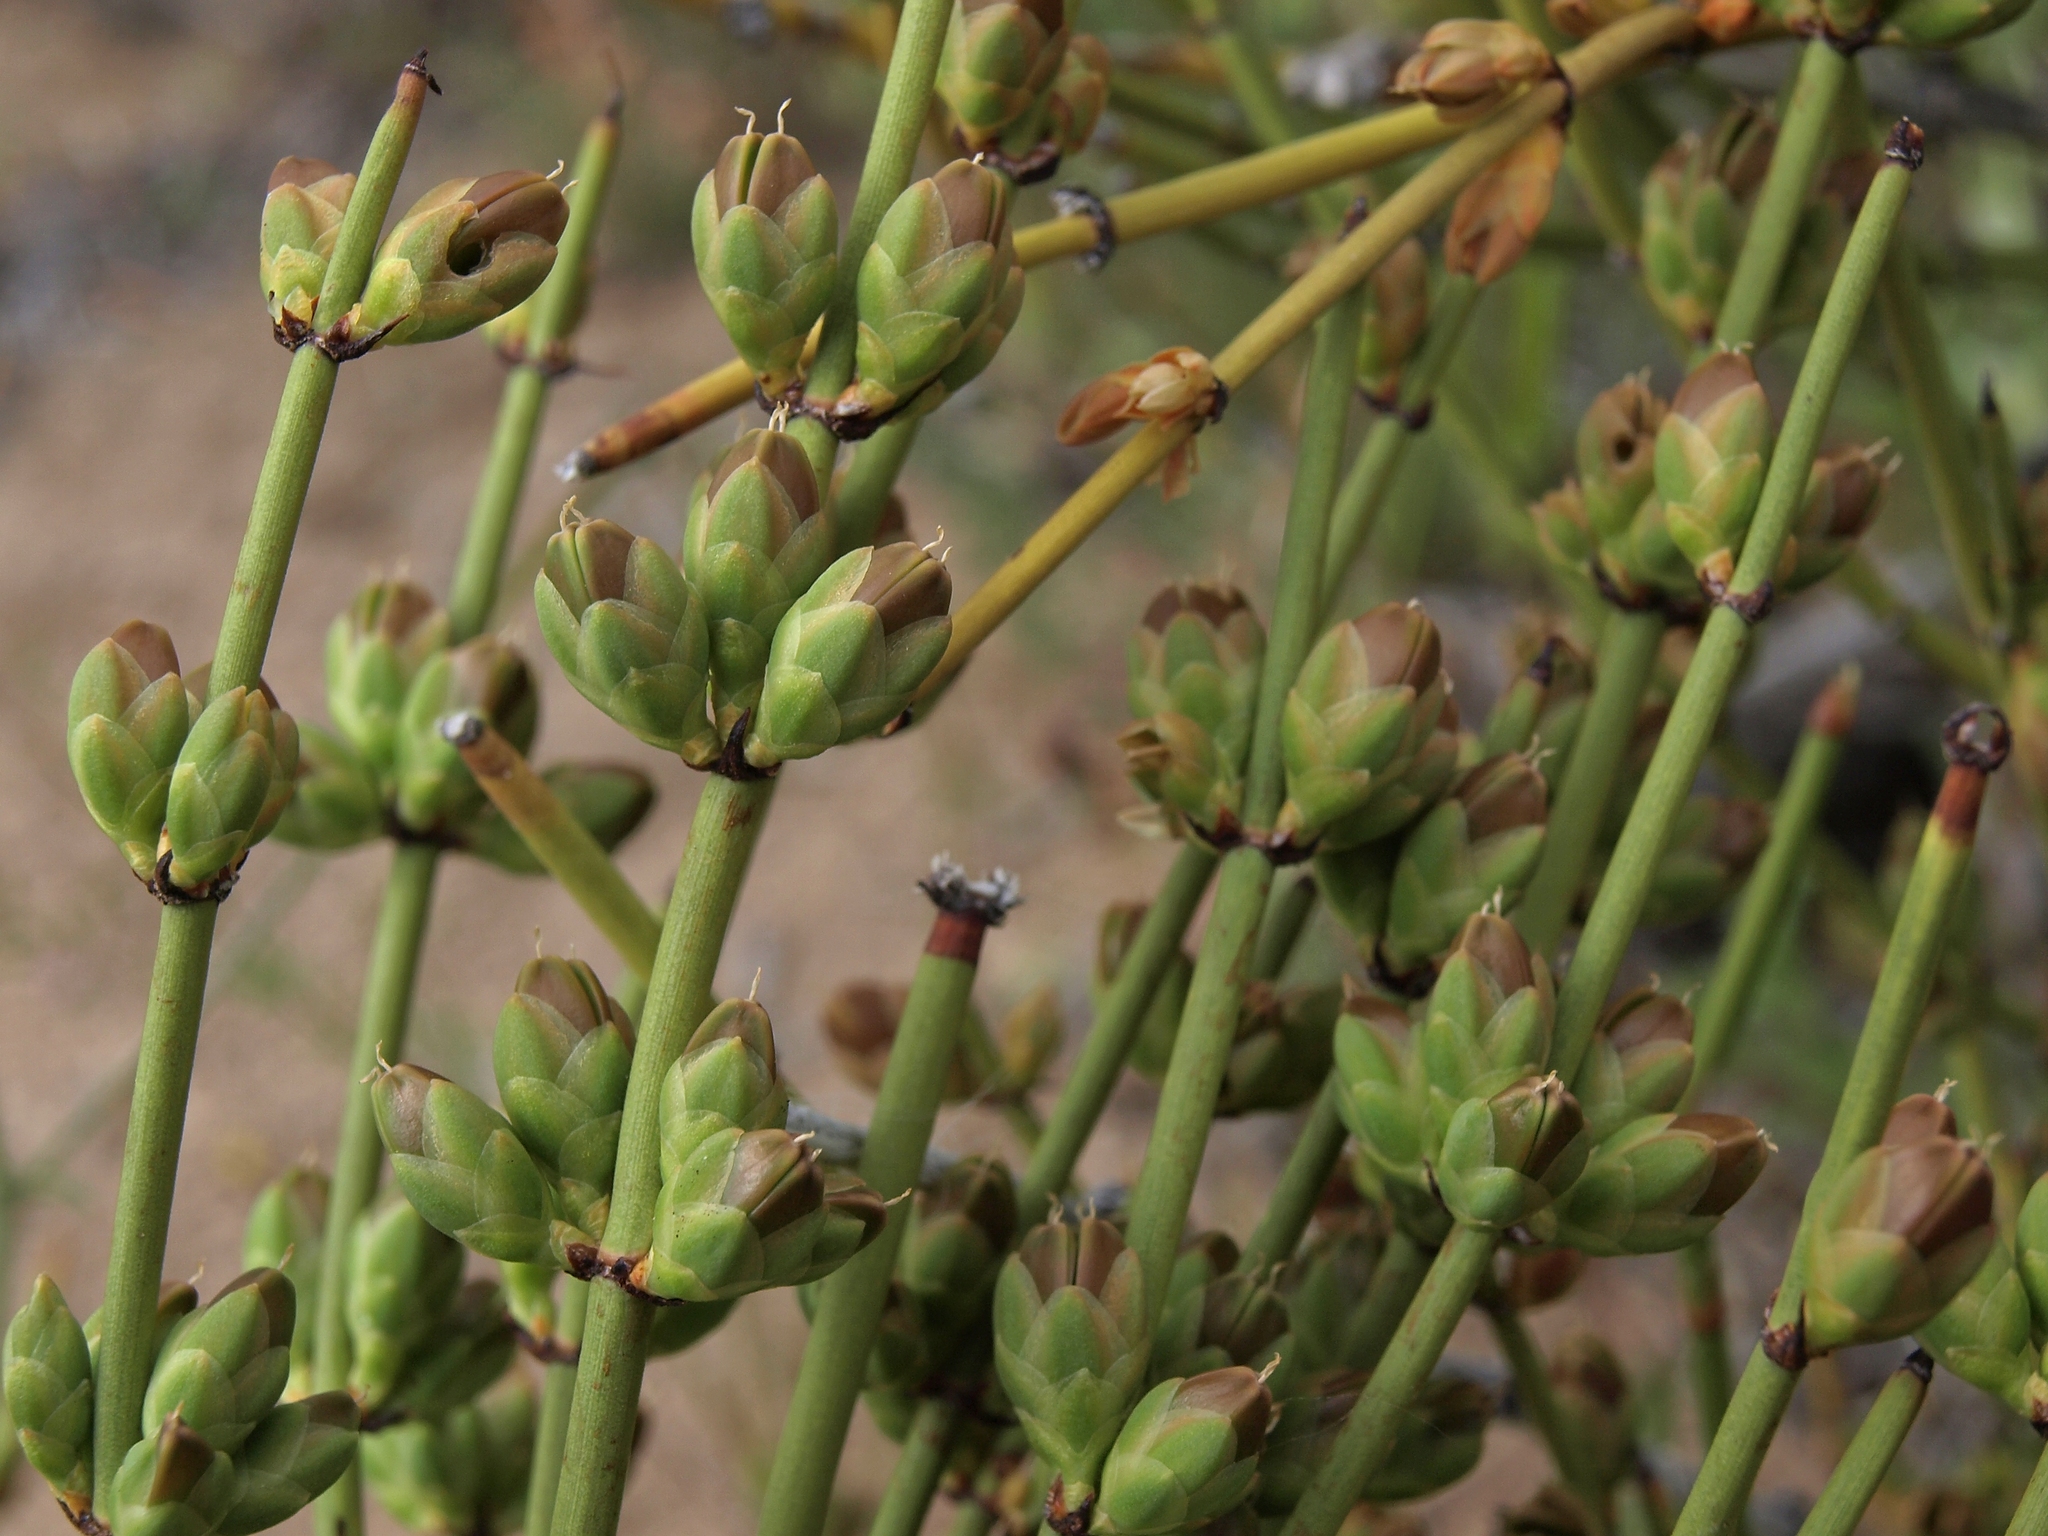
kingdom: Plantae
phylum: Tracheophyta
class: Gnetopsida
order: Ephedrales
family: Ephedraceae
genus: Ephedra
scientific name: Ephedra viridis
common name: Green ephedra
